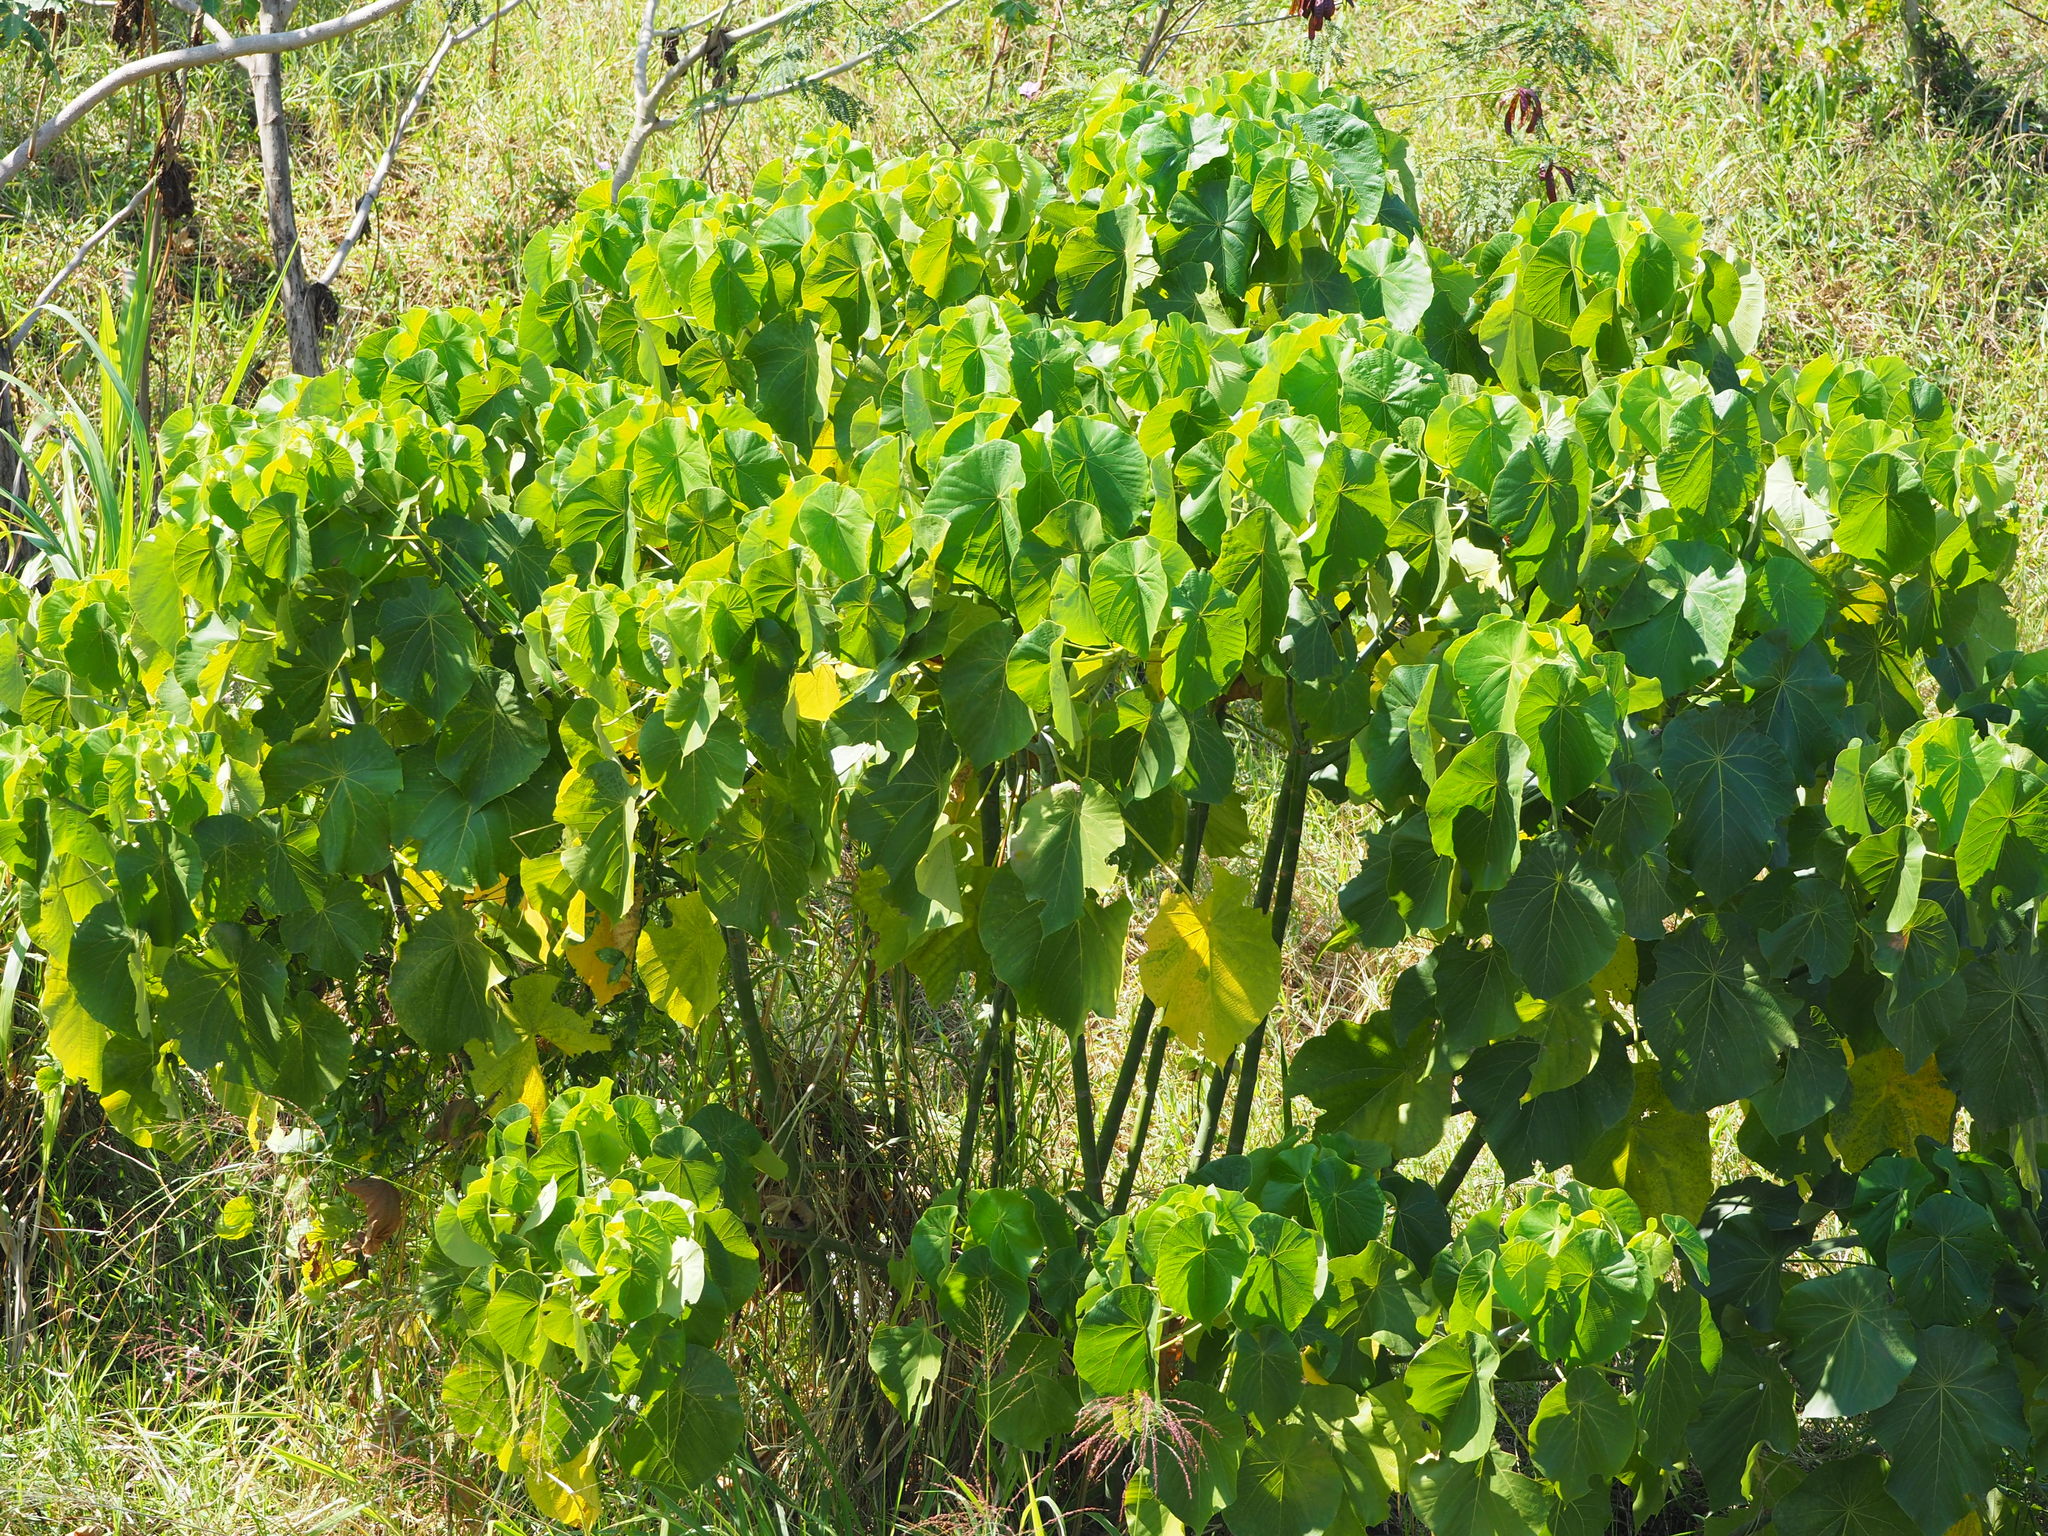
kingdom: Plantae
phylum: Tracheophyta
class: Magnoliopsida
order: Malpighiales
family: Euphorbiaceae
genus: Macaranga
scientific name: Macaranga tanarius
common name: Parasol leaf tree
